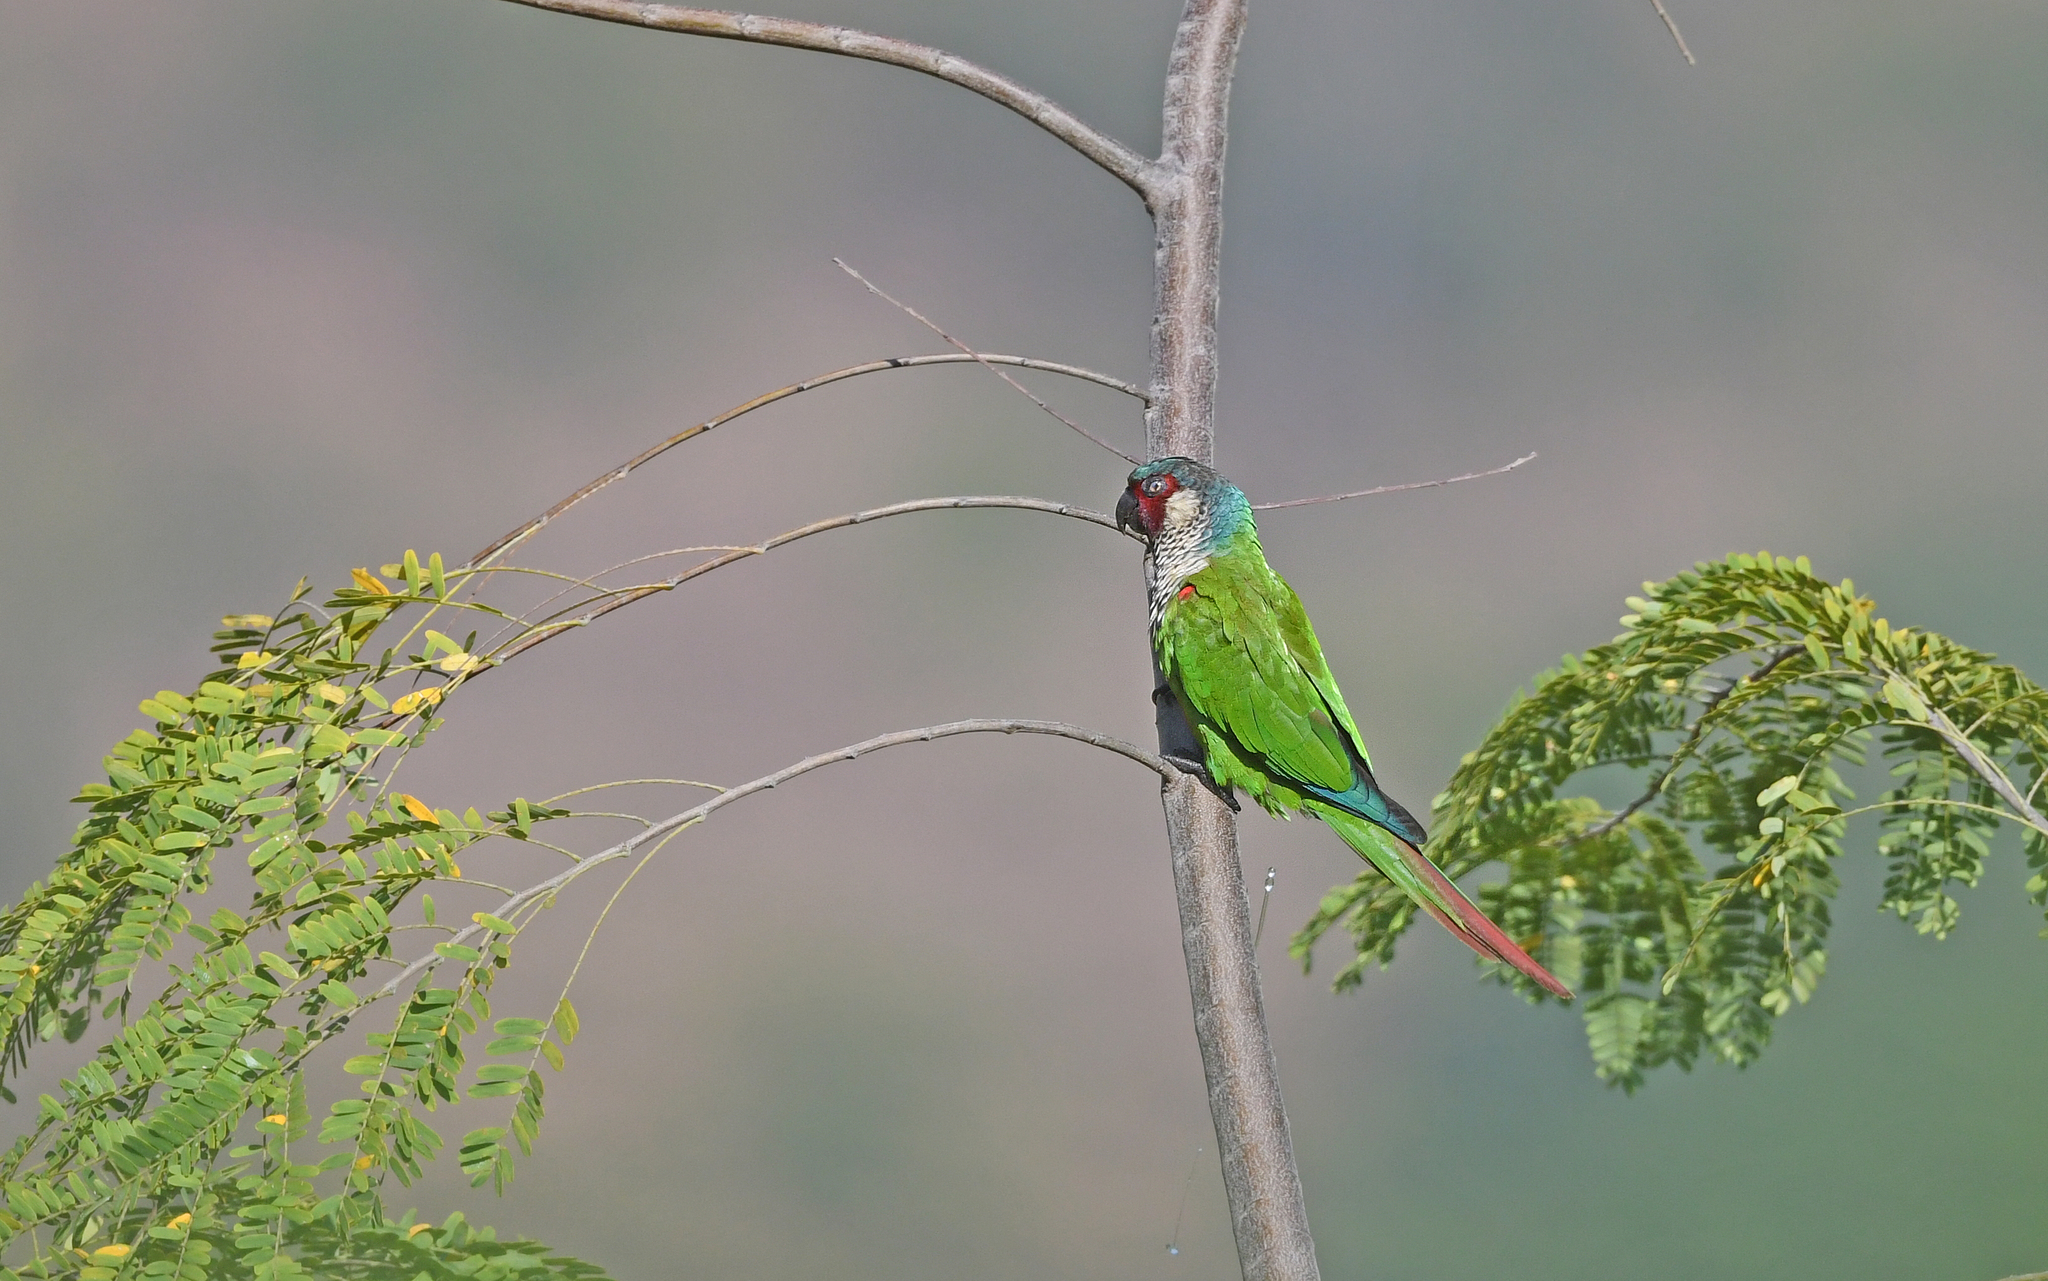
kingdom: Animalia
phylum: Chordata
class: Aves
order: Psittaciformes
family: Psittacidae
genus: Pyrrhura
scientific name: Pyrrhura picta
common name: Painted parakeet
